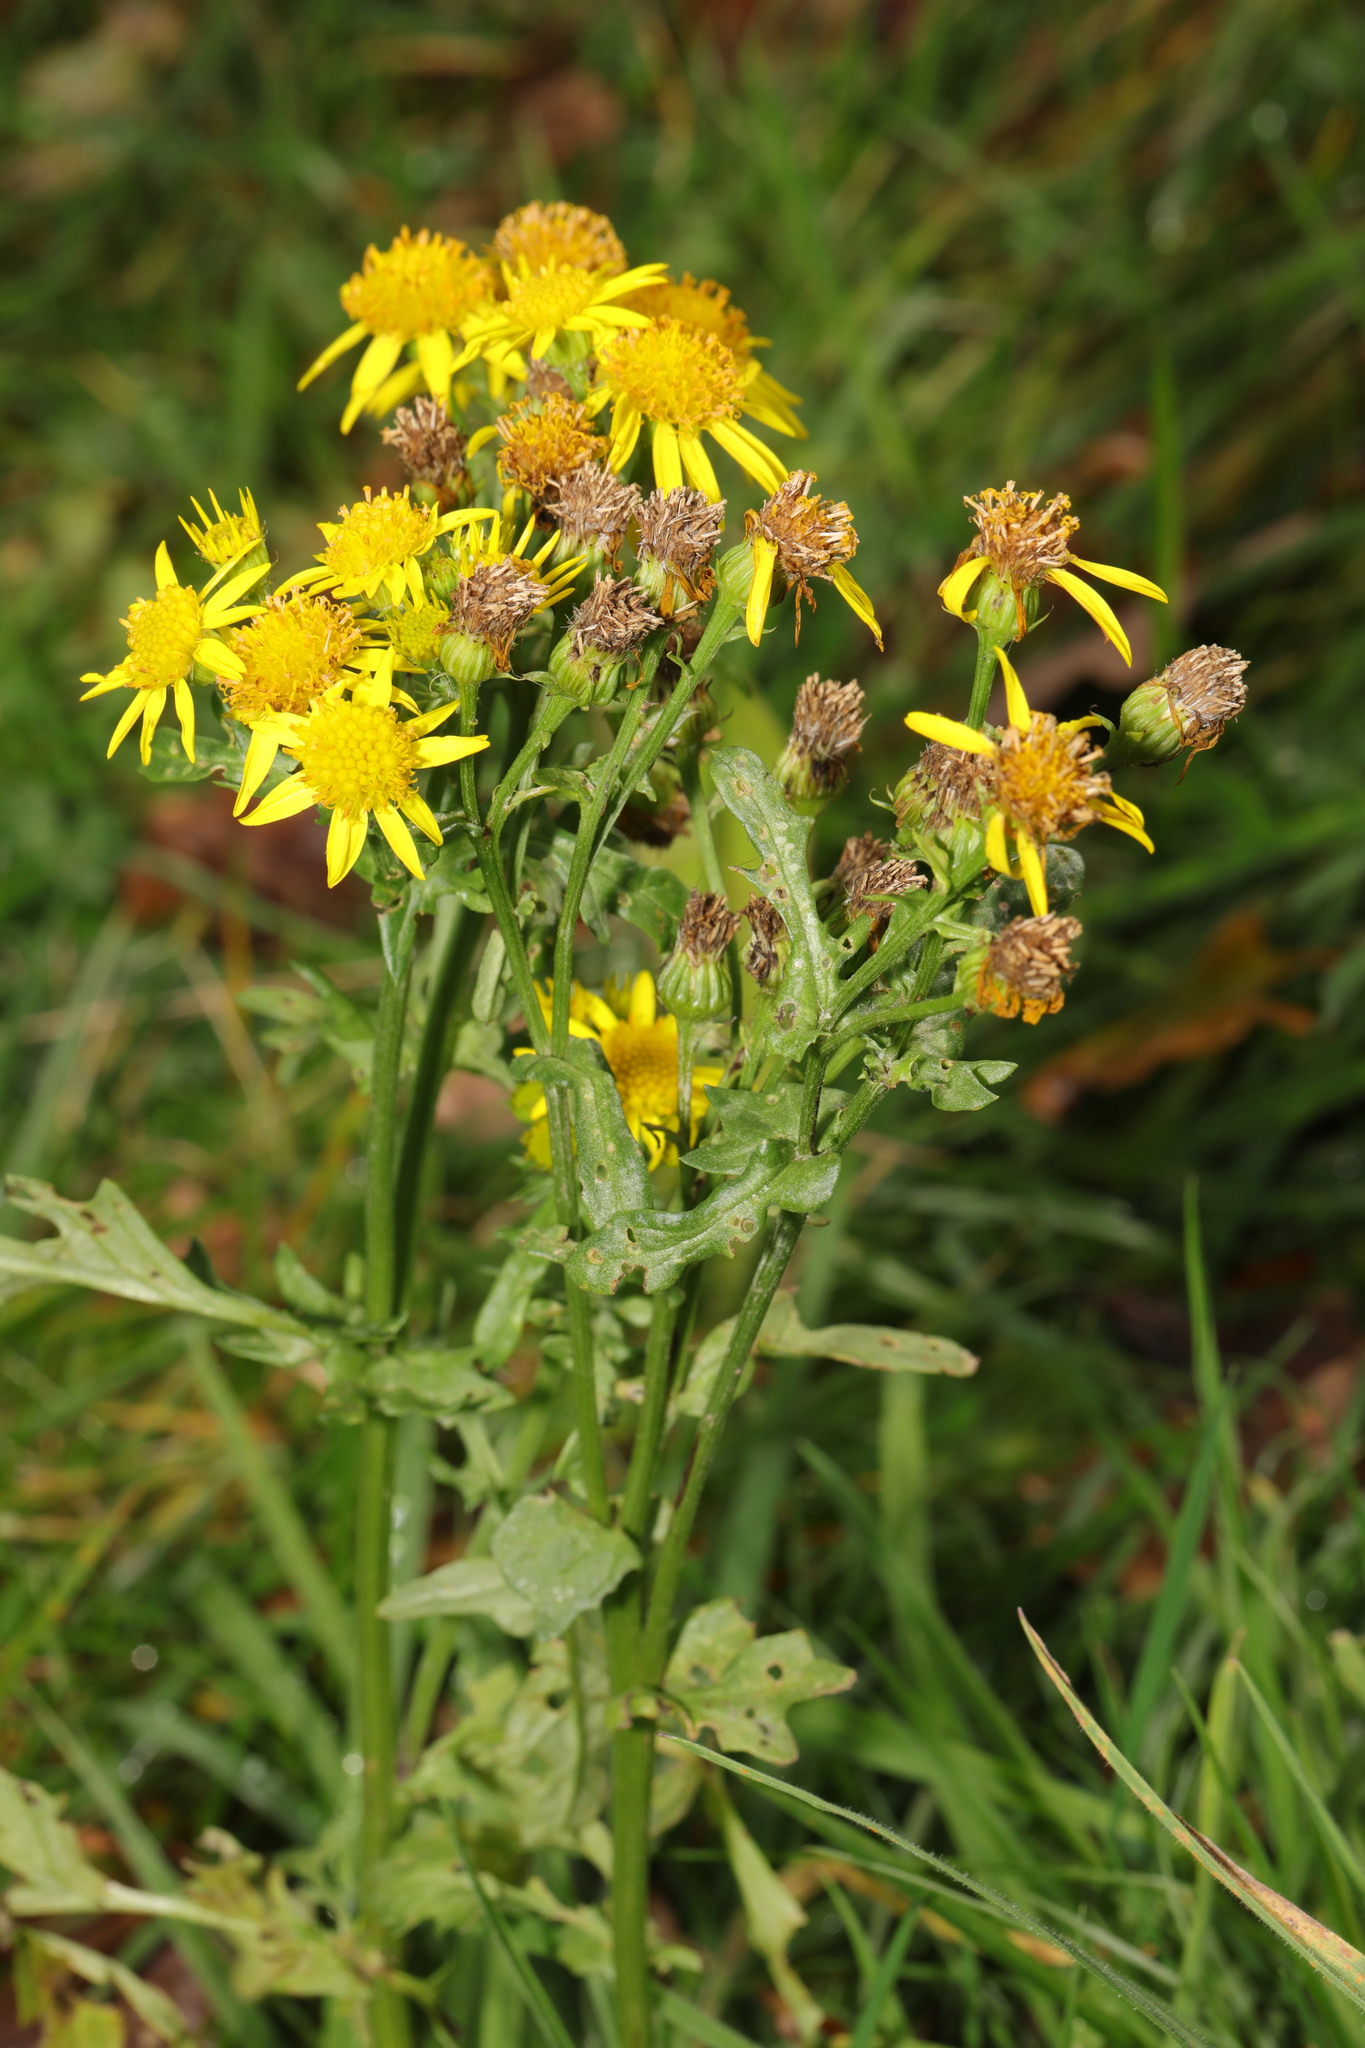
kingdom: Plantae
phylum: Tracheophyta
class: Magnoliopsida
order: Asterales
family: Asteraceae
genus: Jacobaea
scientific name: Jacobaea vulgaris
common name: Stinking willie
